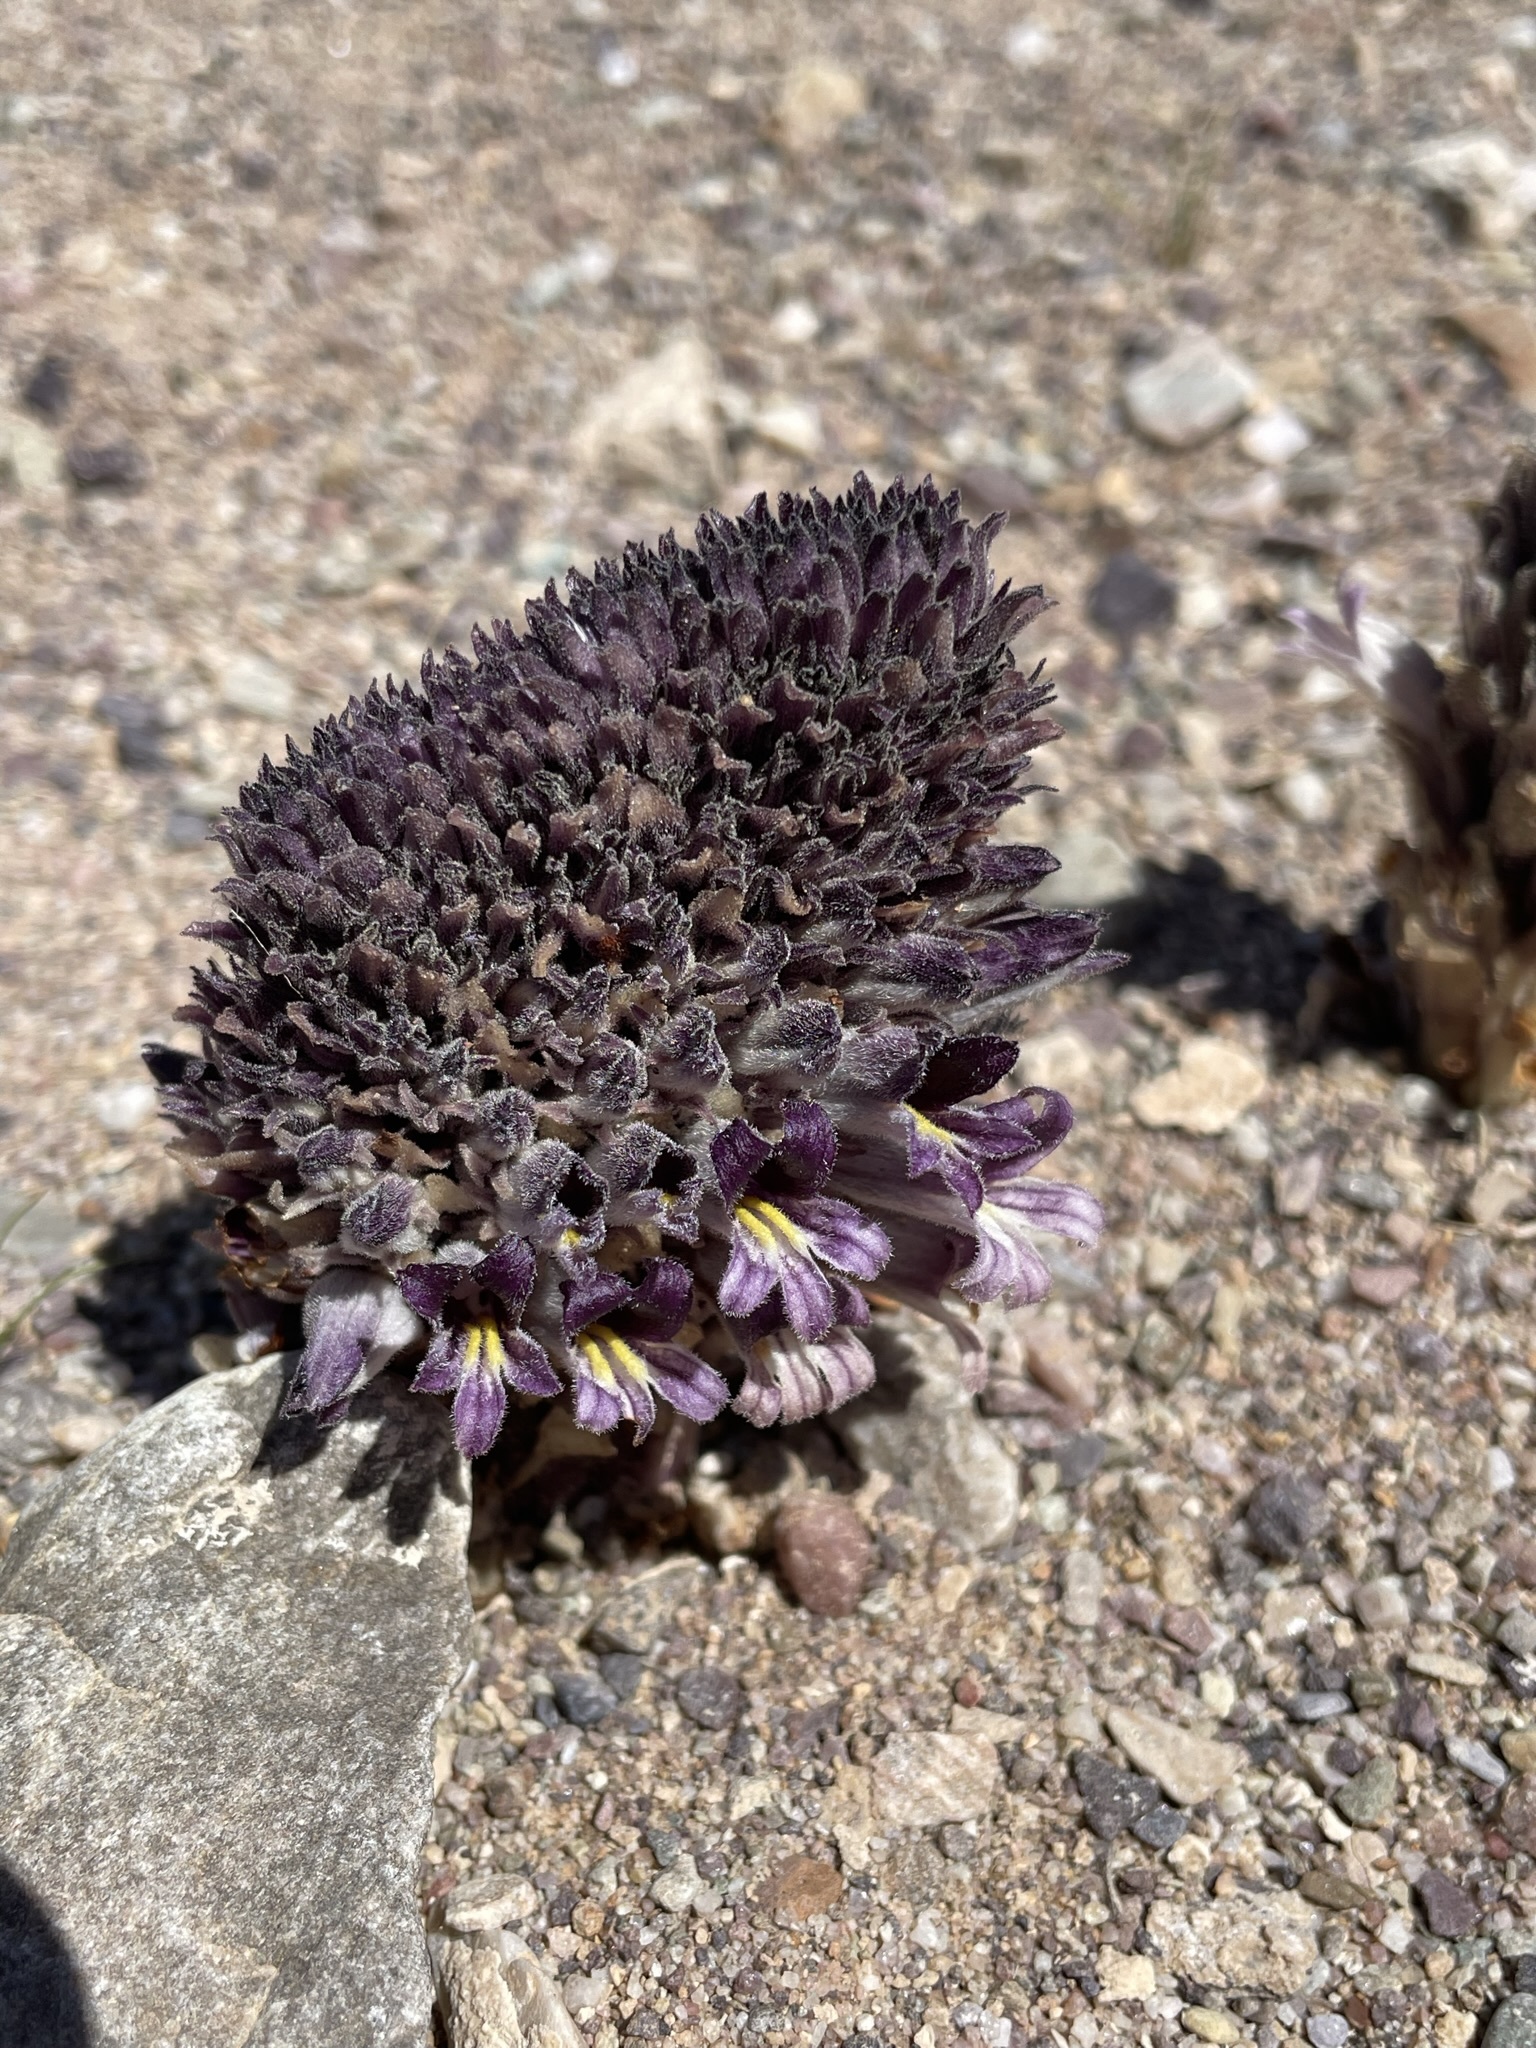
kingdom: Plantae
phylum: Tracheophyta
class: Magnoliopsida
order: Lamiales
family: Orobanchaceae
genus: Aphyllon
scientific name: Aphyllon cooperi
